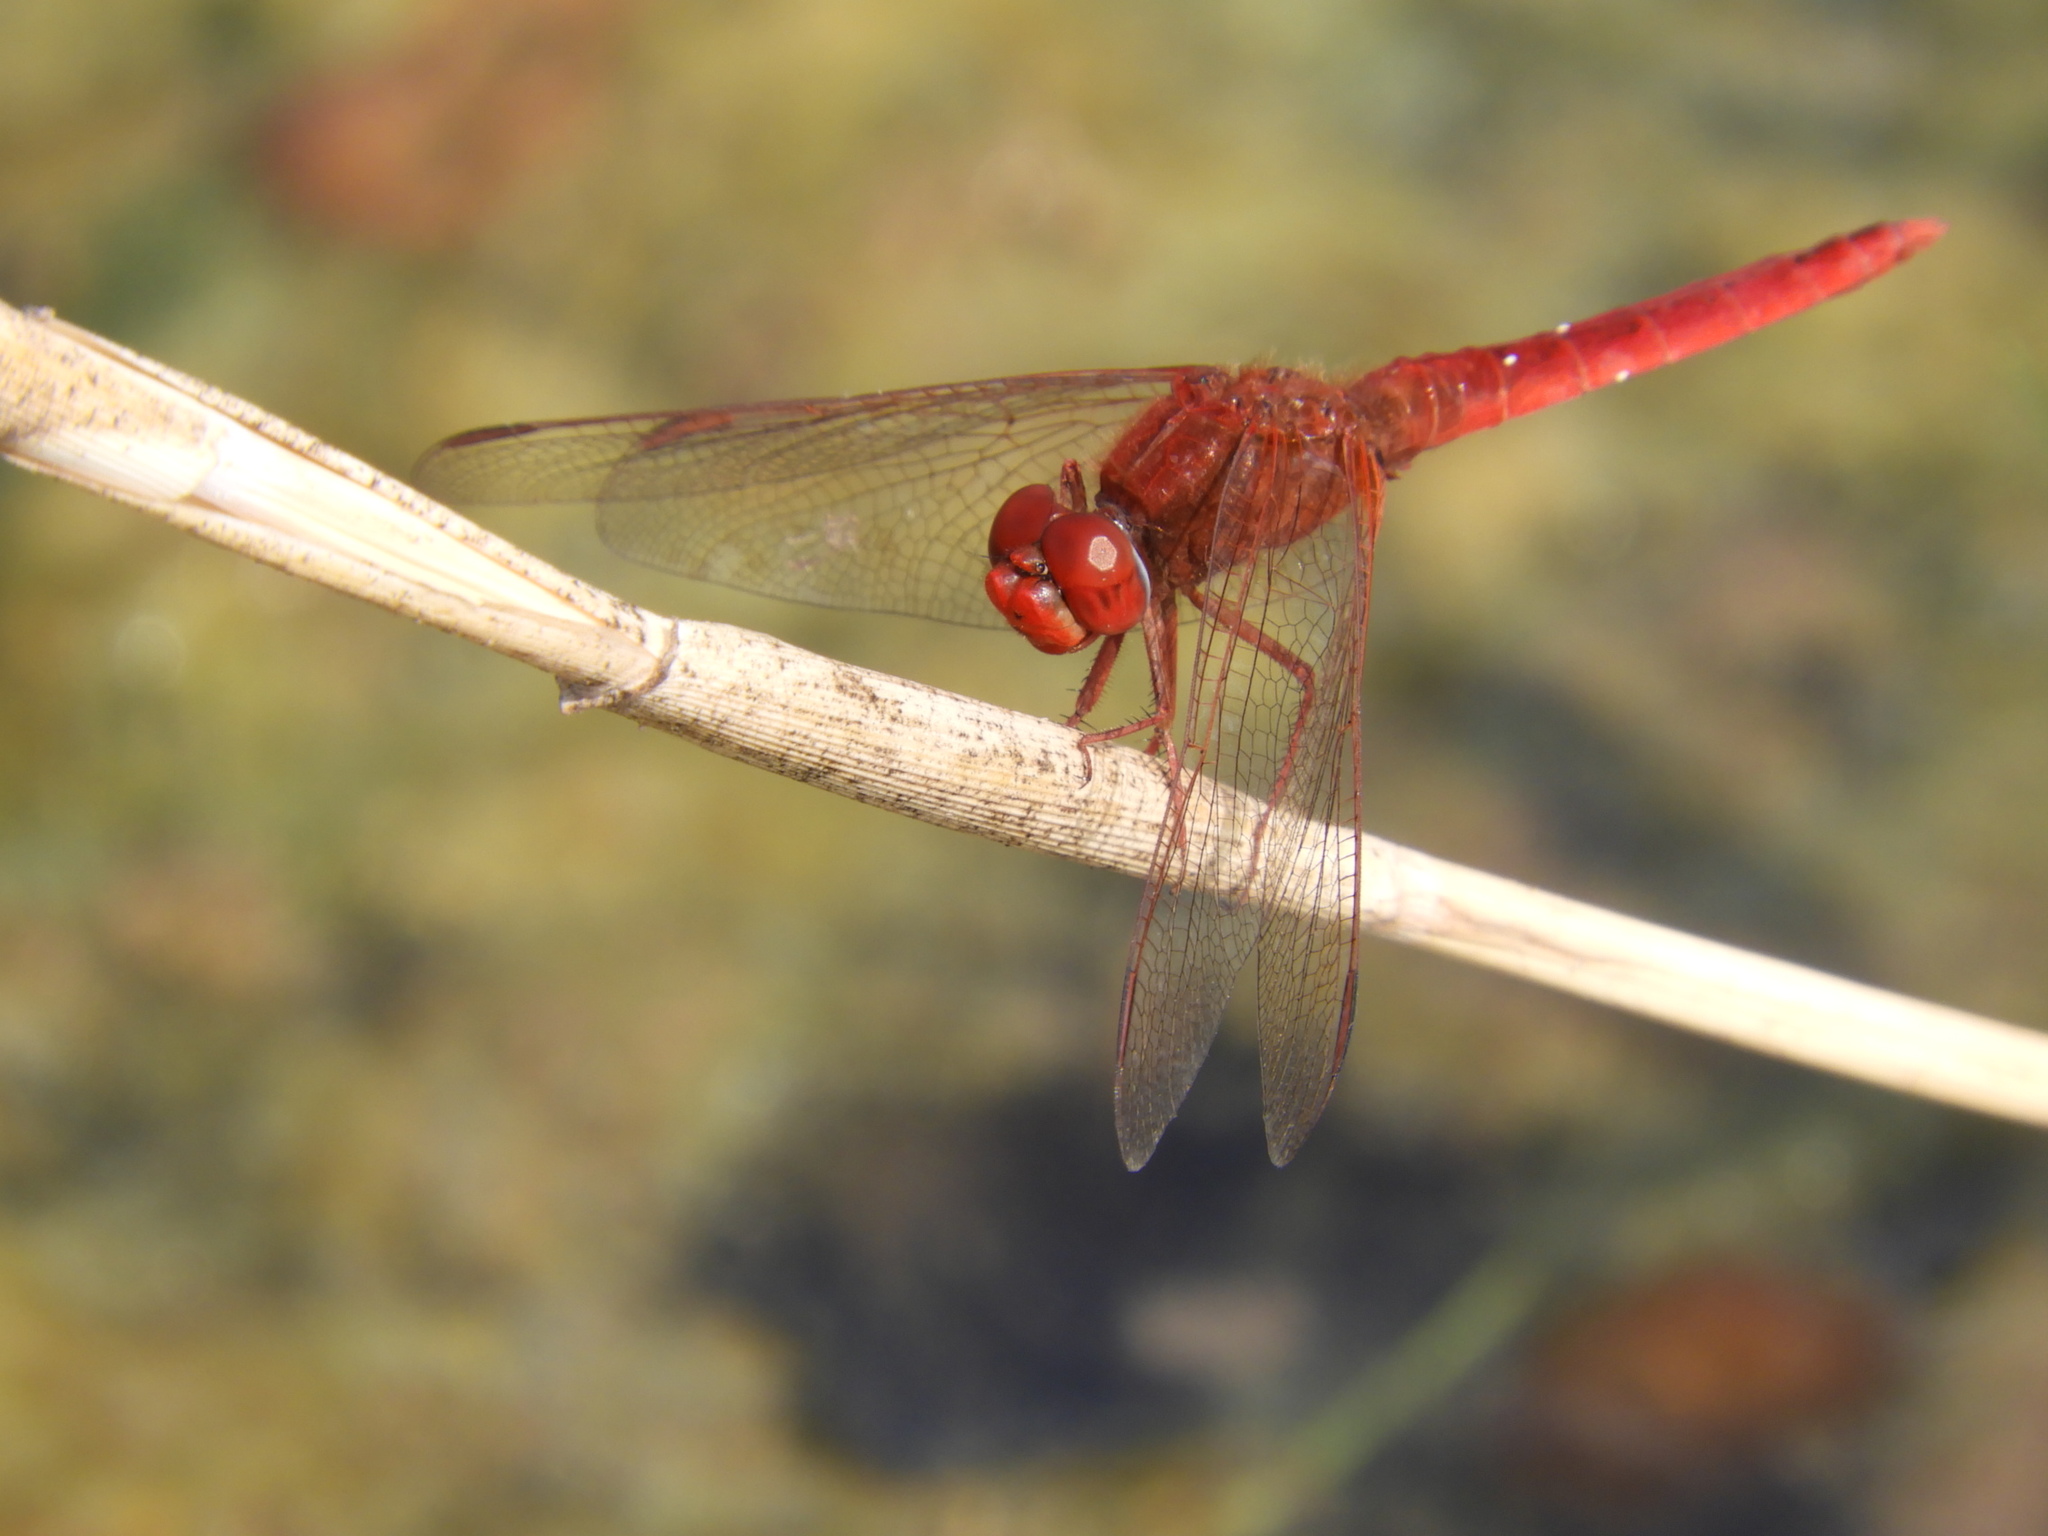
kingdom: Animalia
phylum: Arthropoda
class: Insecta
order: Odonata
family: Libellulidae
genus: Crocothemis
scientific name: Crocothemis erythraea
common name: Scarlet dragonfly
